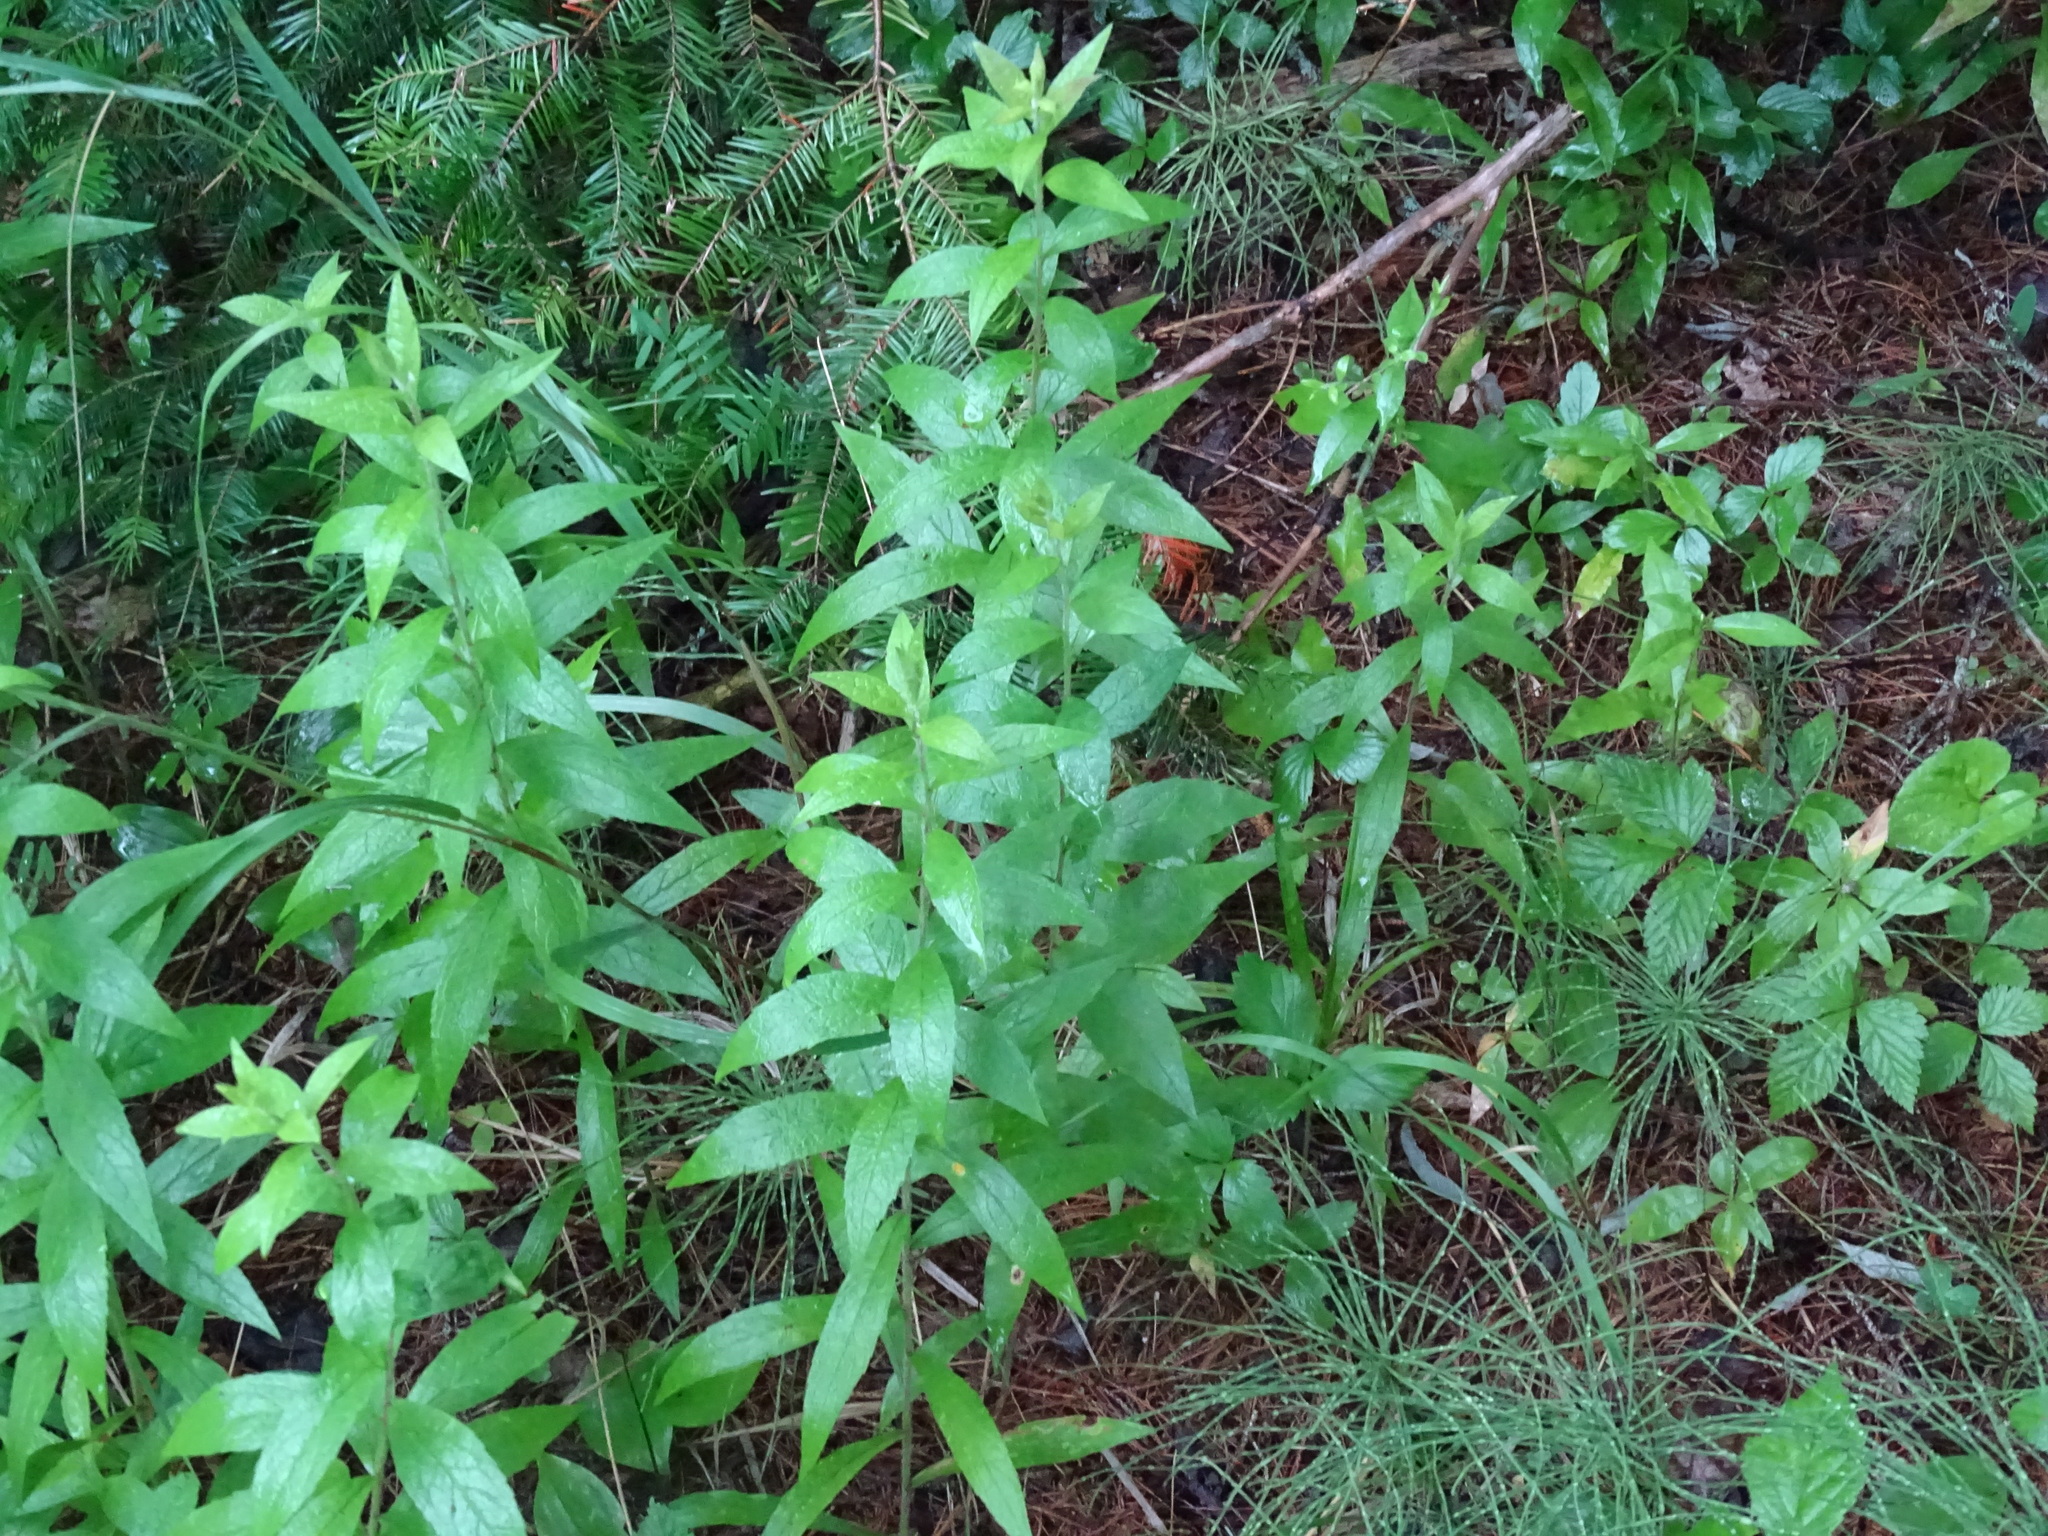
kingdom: Plantae
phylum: Tracheophyta
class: Magnoliopsida
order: Asterales
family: Asteraceae
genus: Solidago
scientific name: Solidago rugosa
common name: Rough-stemmed goldenrod
